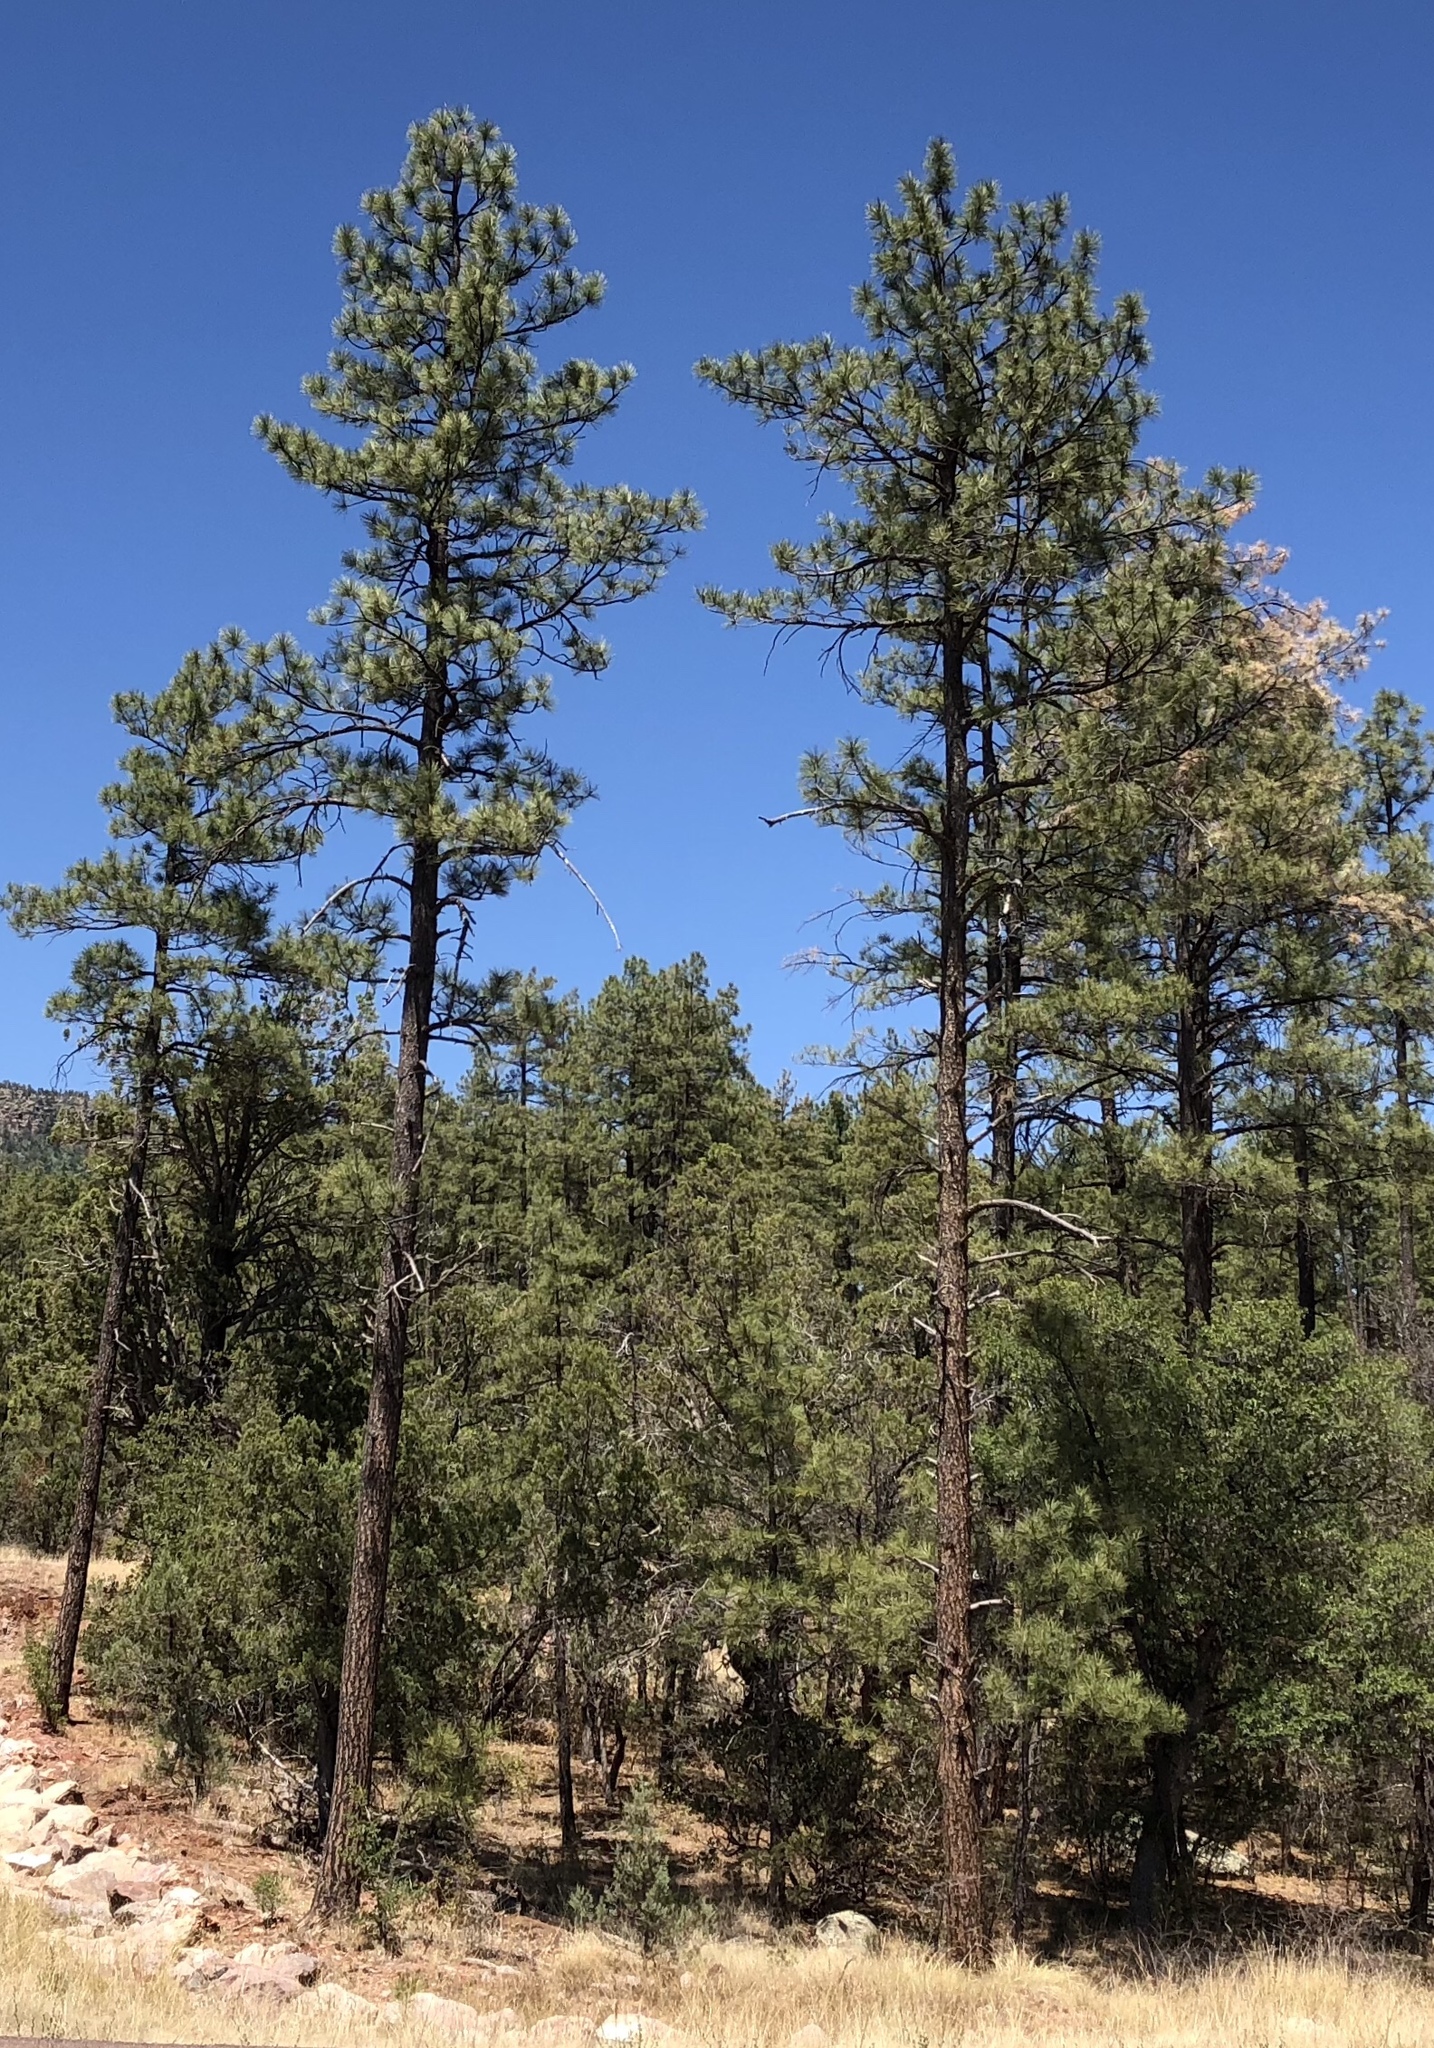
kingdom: Plantae
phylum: Tracheophyta
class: Pinopsida
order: Pinales
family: Pinaceae
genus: Pinus
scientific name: Pinus ponderosa
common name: Western yellow-pine
